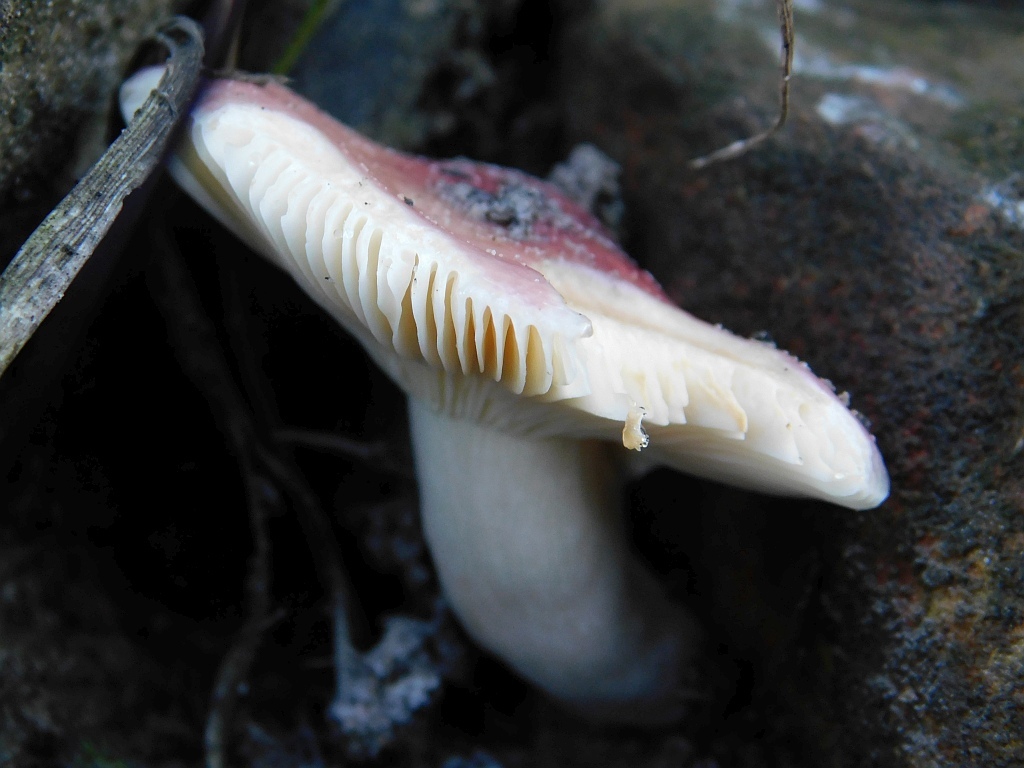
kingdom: Fungi
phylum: Basidiomycota
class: Agaricomycetes
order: Russulales
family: Russulaceae
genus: Russula
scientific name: Russula sardonia
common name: Primrose brittlegill
